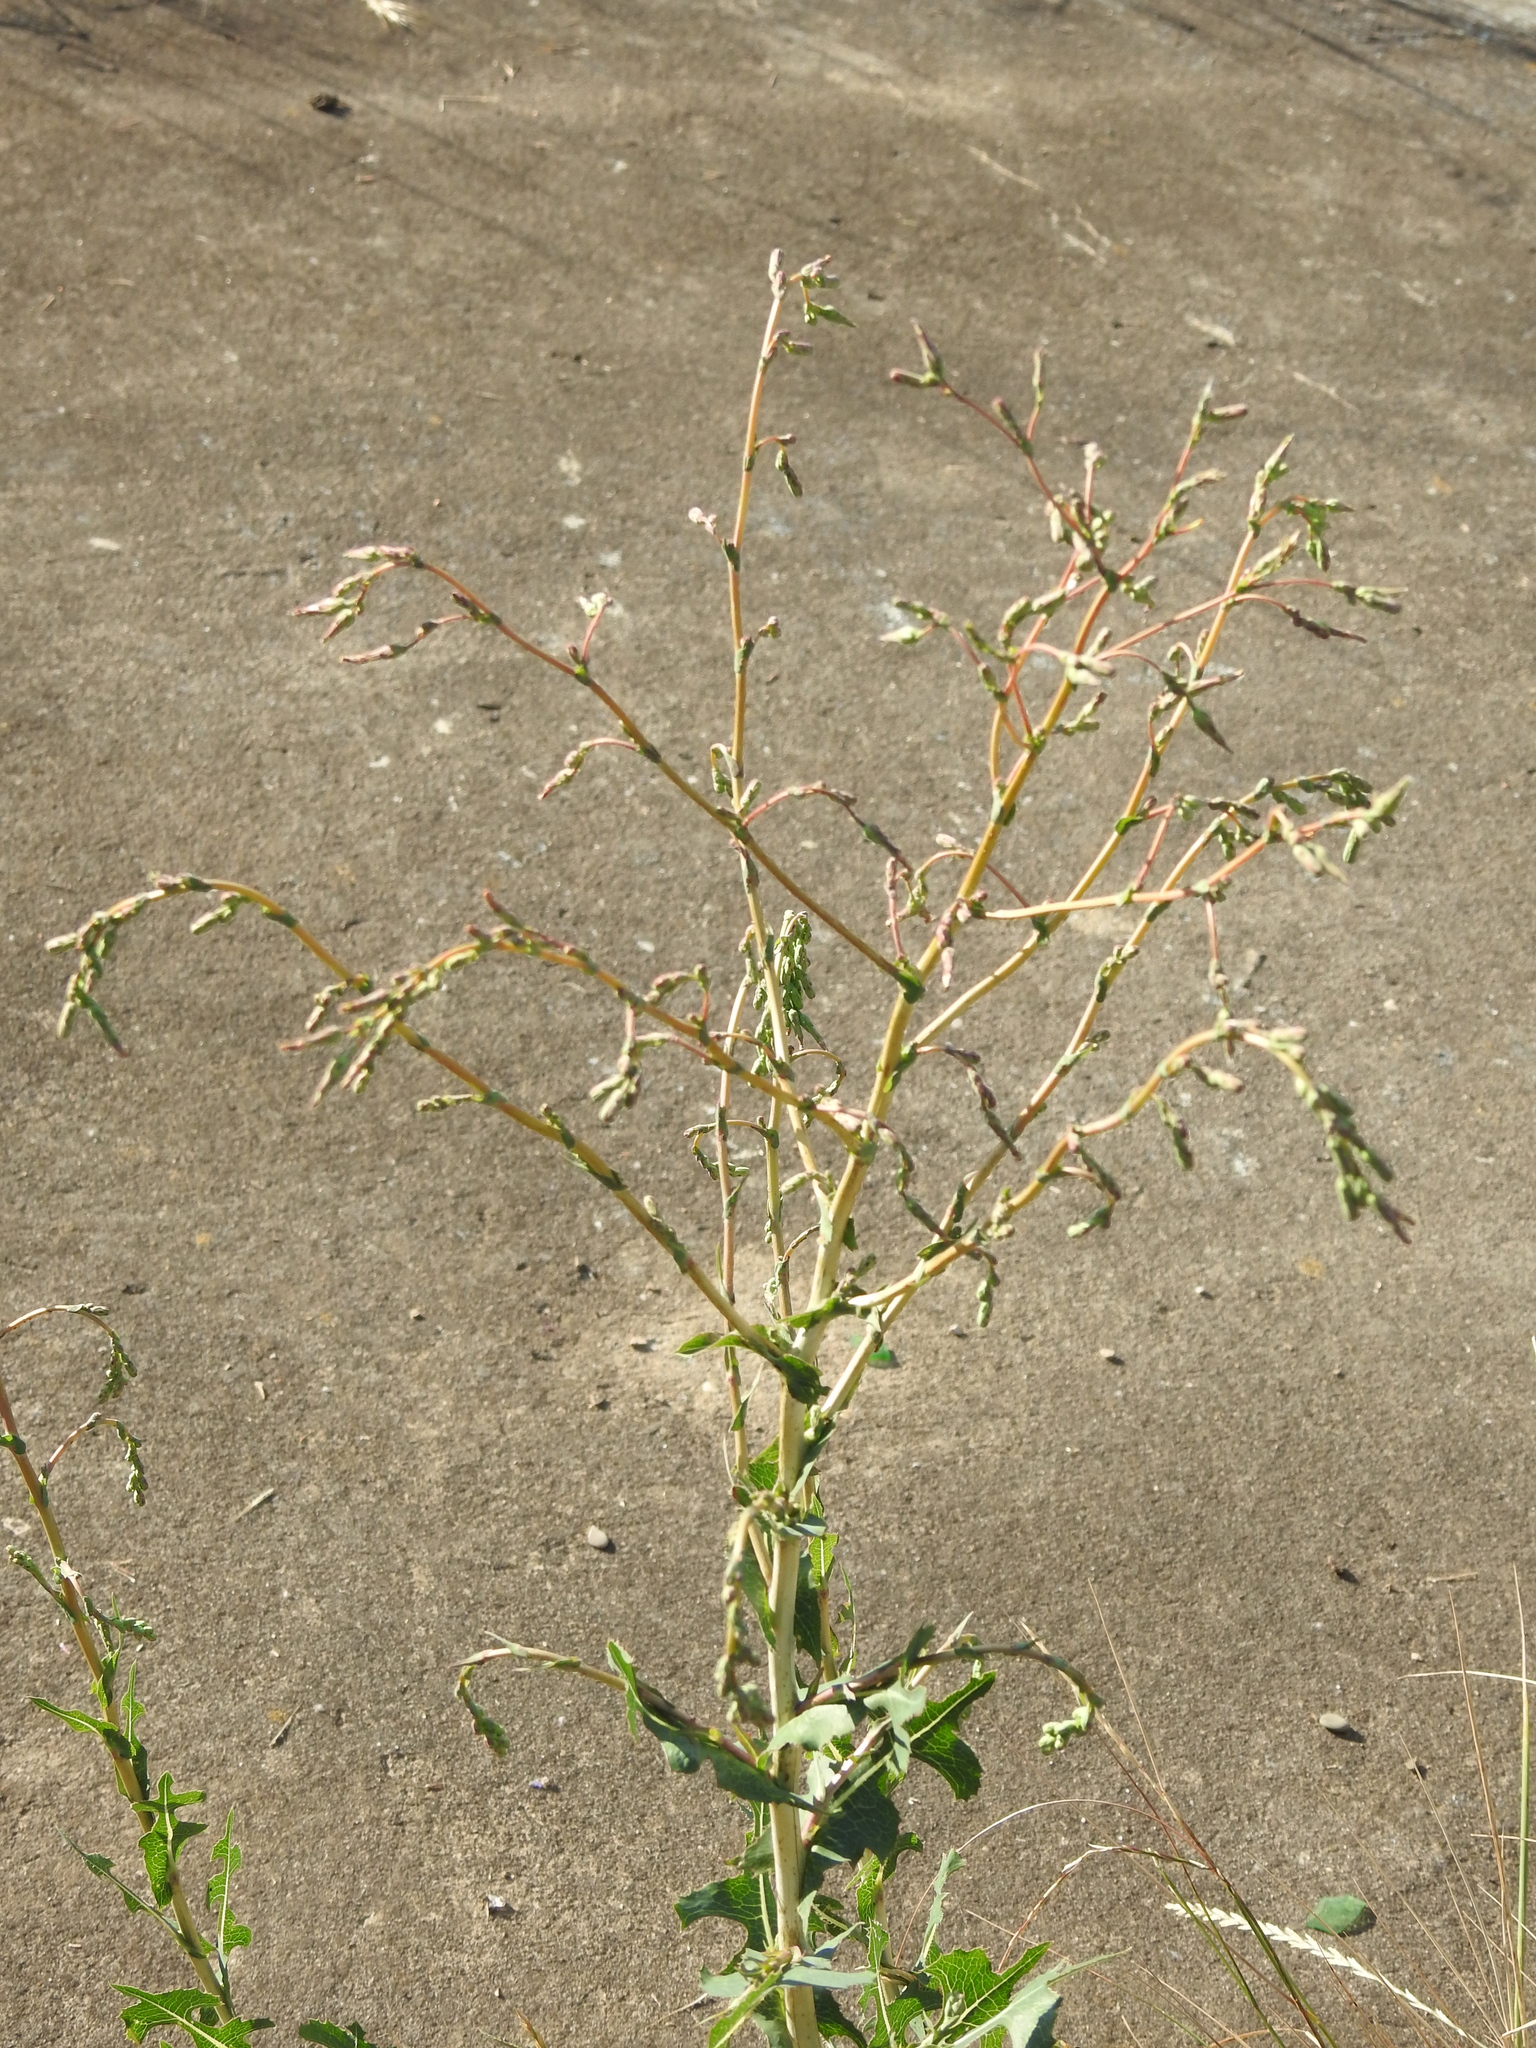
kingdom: Plantae
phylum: Tracheophyta
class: Magnoliopsida
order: Asterales
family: Asteraceae
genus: Lactuca
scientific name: Lactuca serriola
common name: Prickly lettuce
